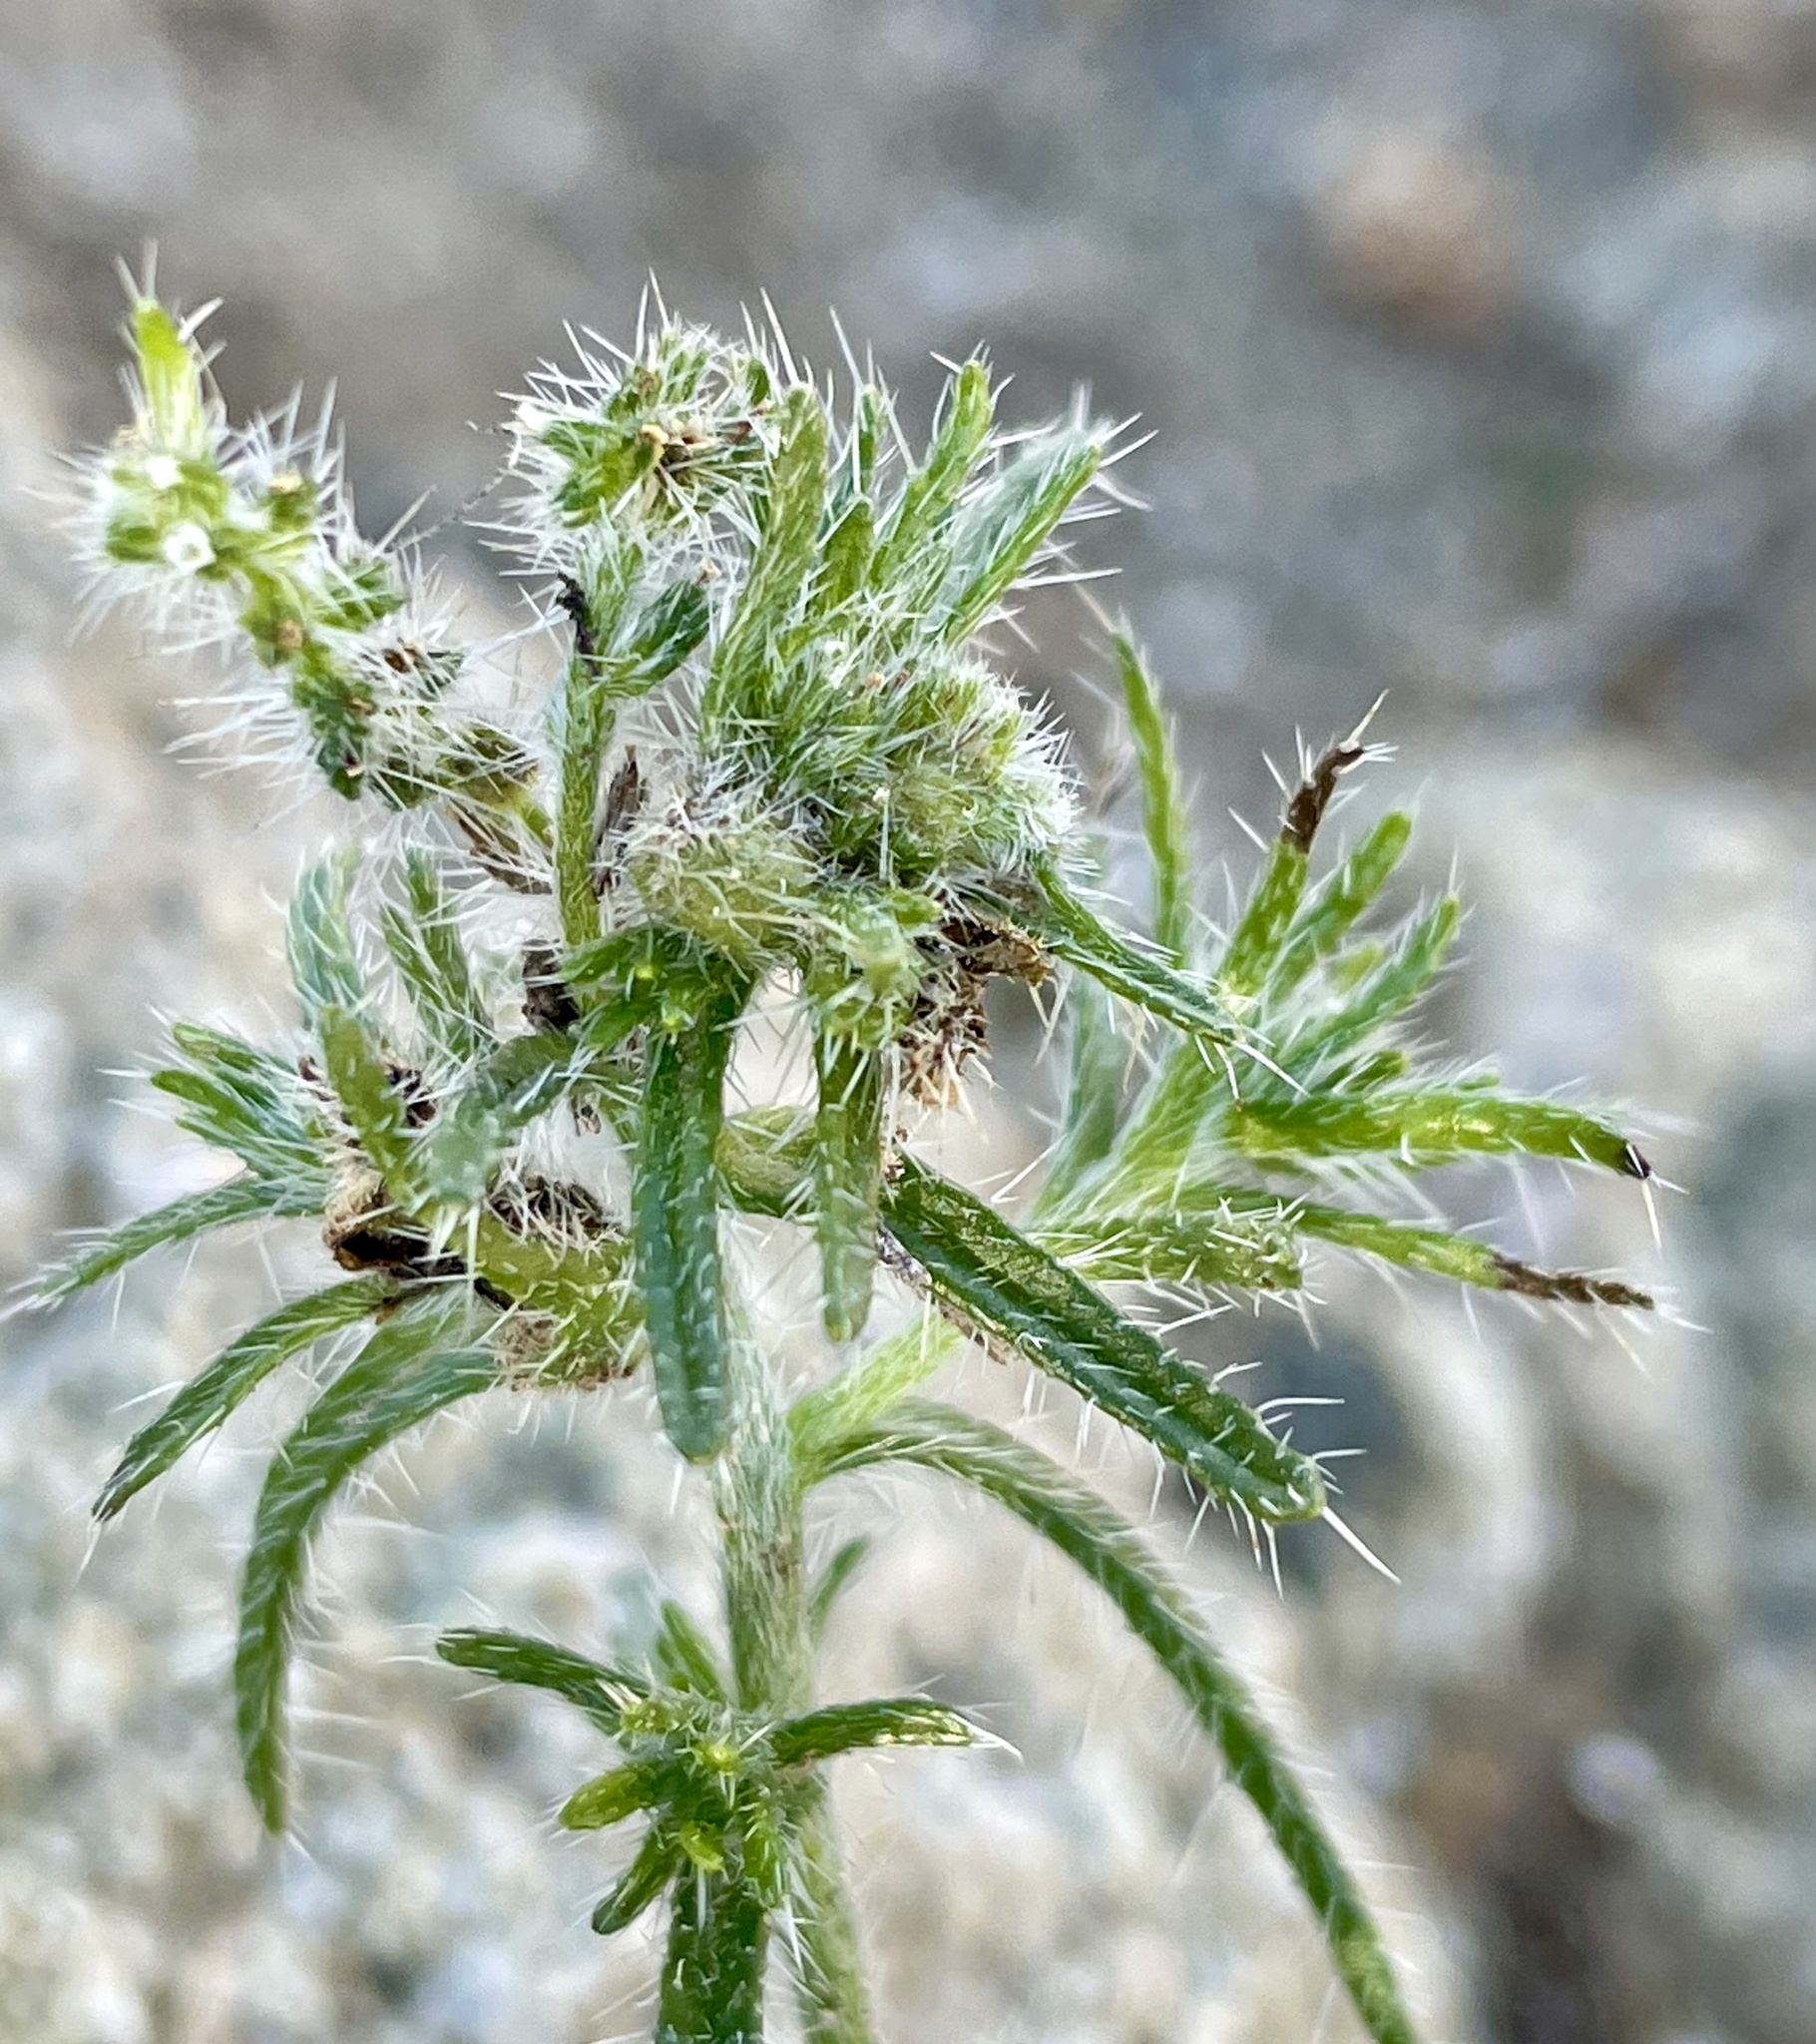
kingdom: Plantae
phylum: Tracheophyta
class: Magnoliopsida
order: Boraginales
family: Boraginaceae
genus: Cryptantha
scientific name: Cryptantha maritima
